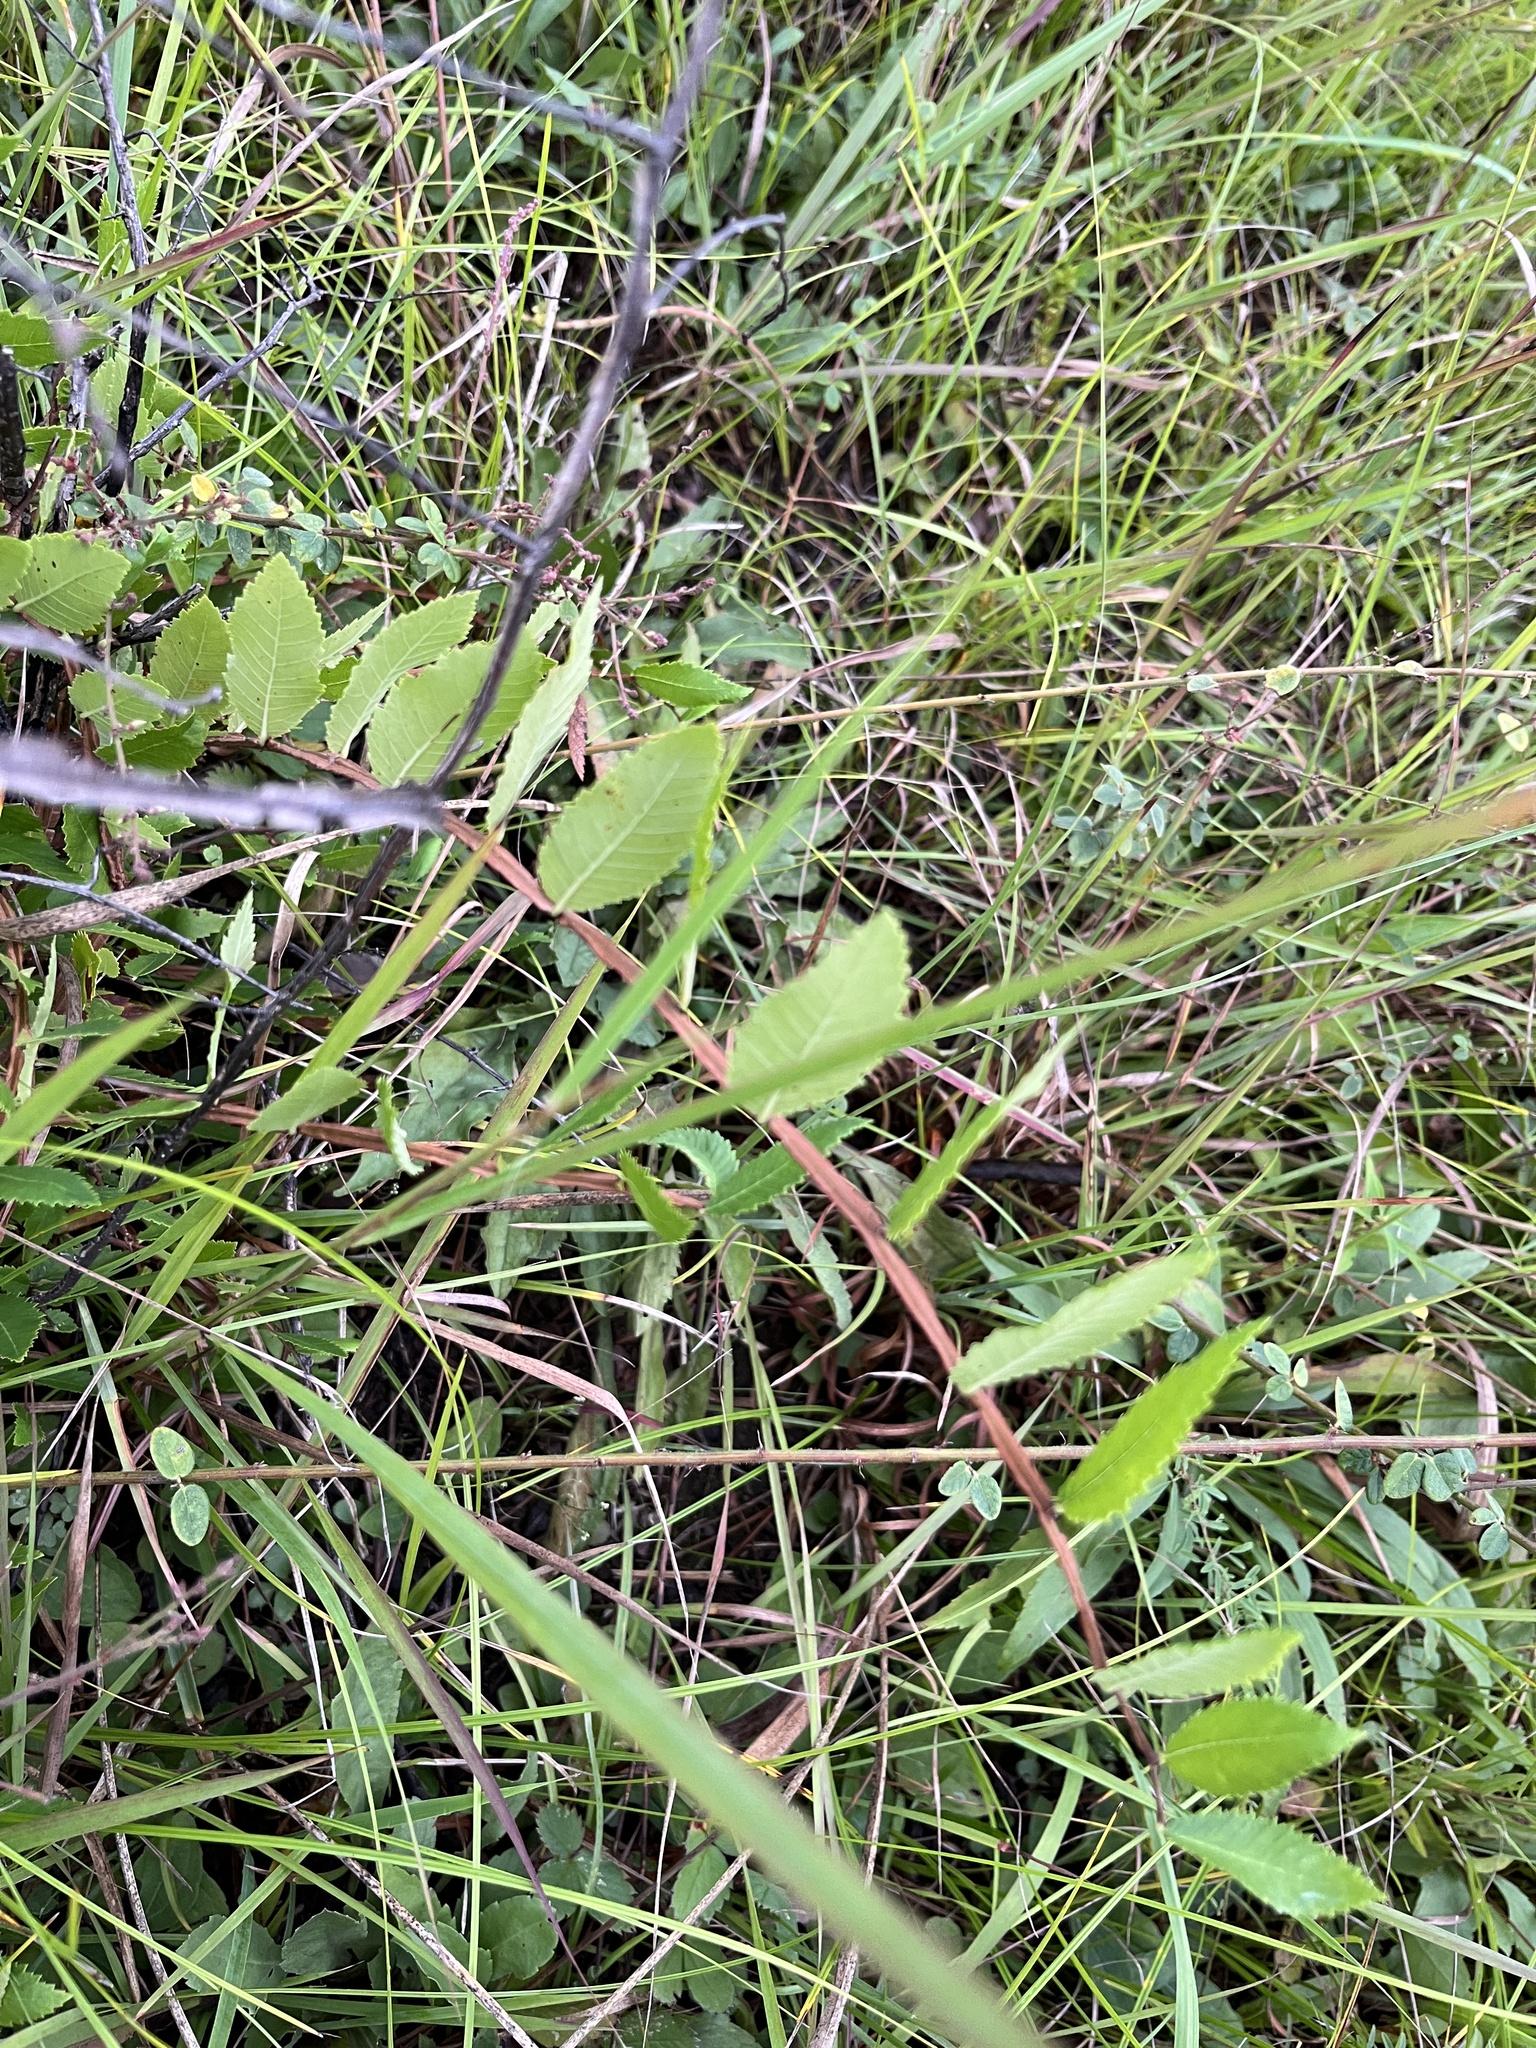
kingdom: Plantae
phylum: Tracheophyta
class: Magnoliopsida
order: Rosales
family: Ulmaceae
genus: Ulmus
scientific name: Ulmus alata
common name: Winged elm
